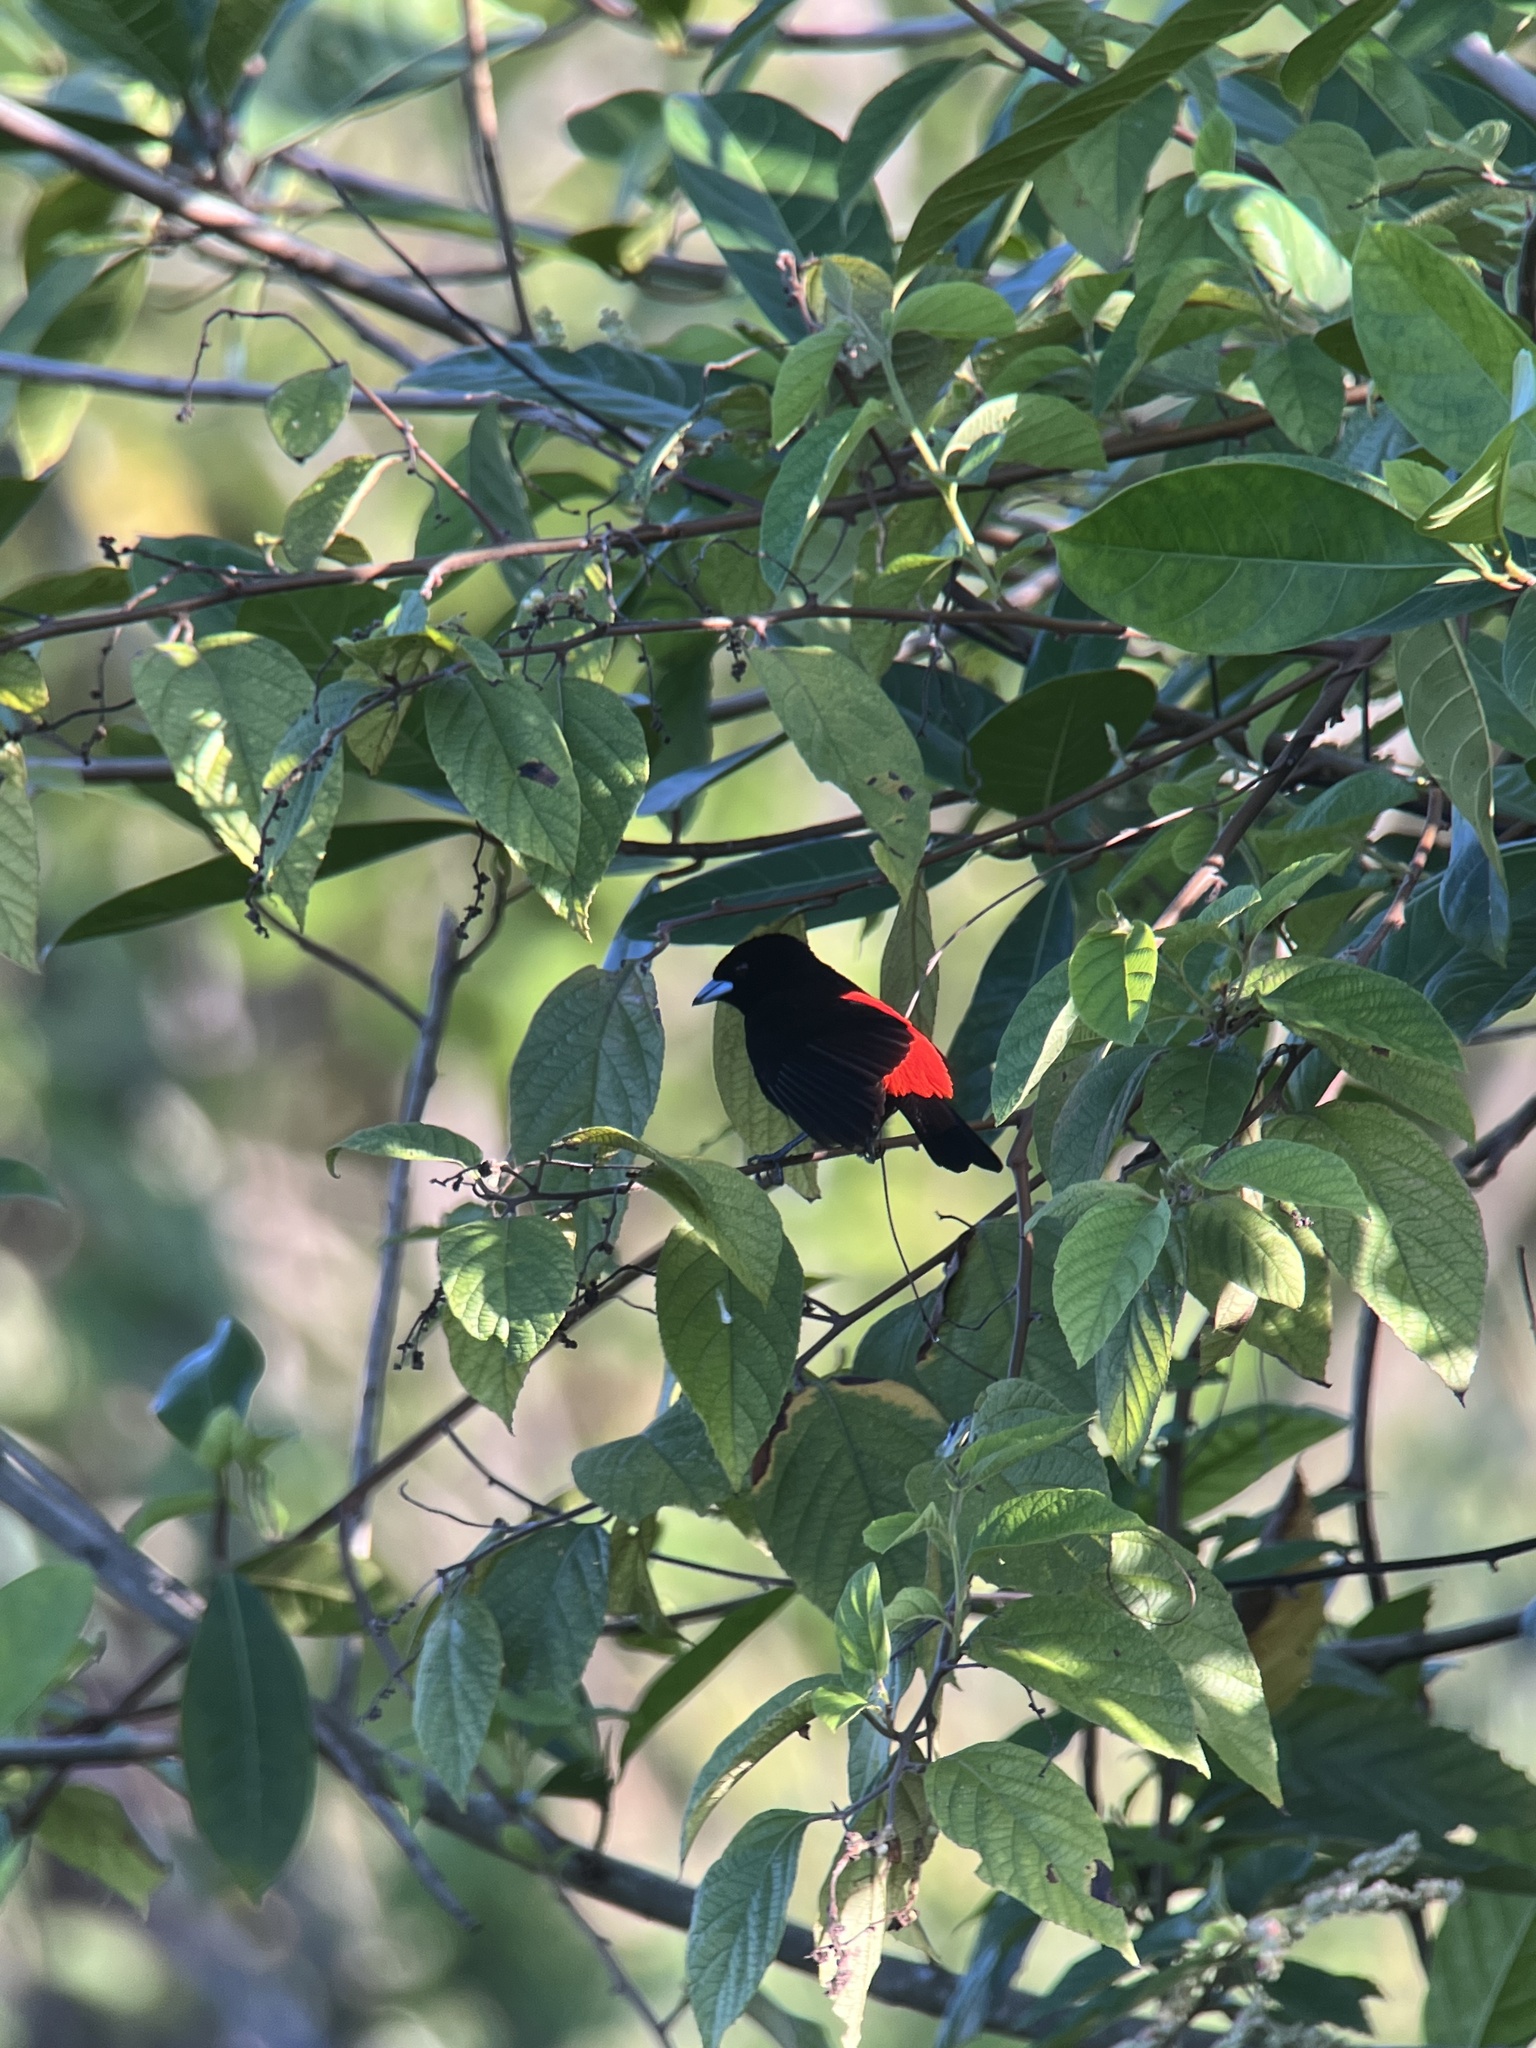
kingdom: Animalia
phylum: Chordata
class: Aves
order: Passeriformes
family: Thraupidae
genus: Ramphocelus
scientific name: Ramphocelus passerinii
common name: Passerini's tanager
